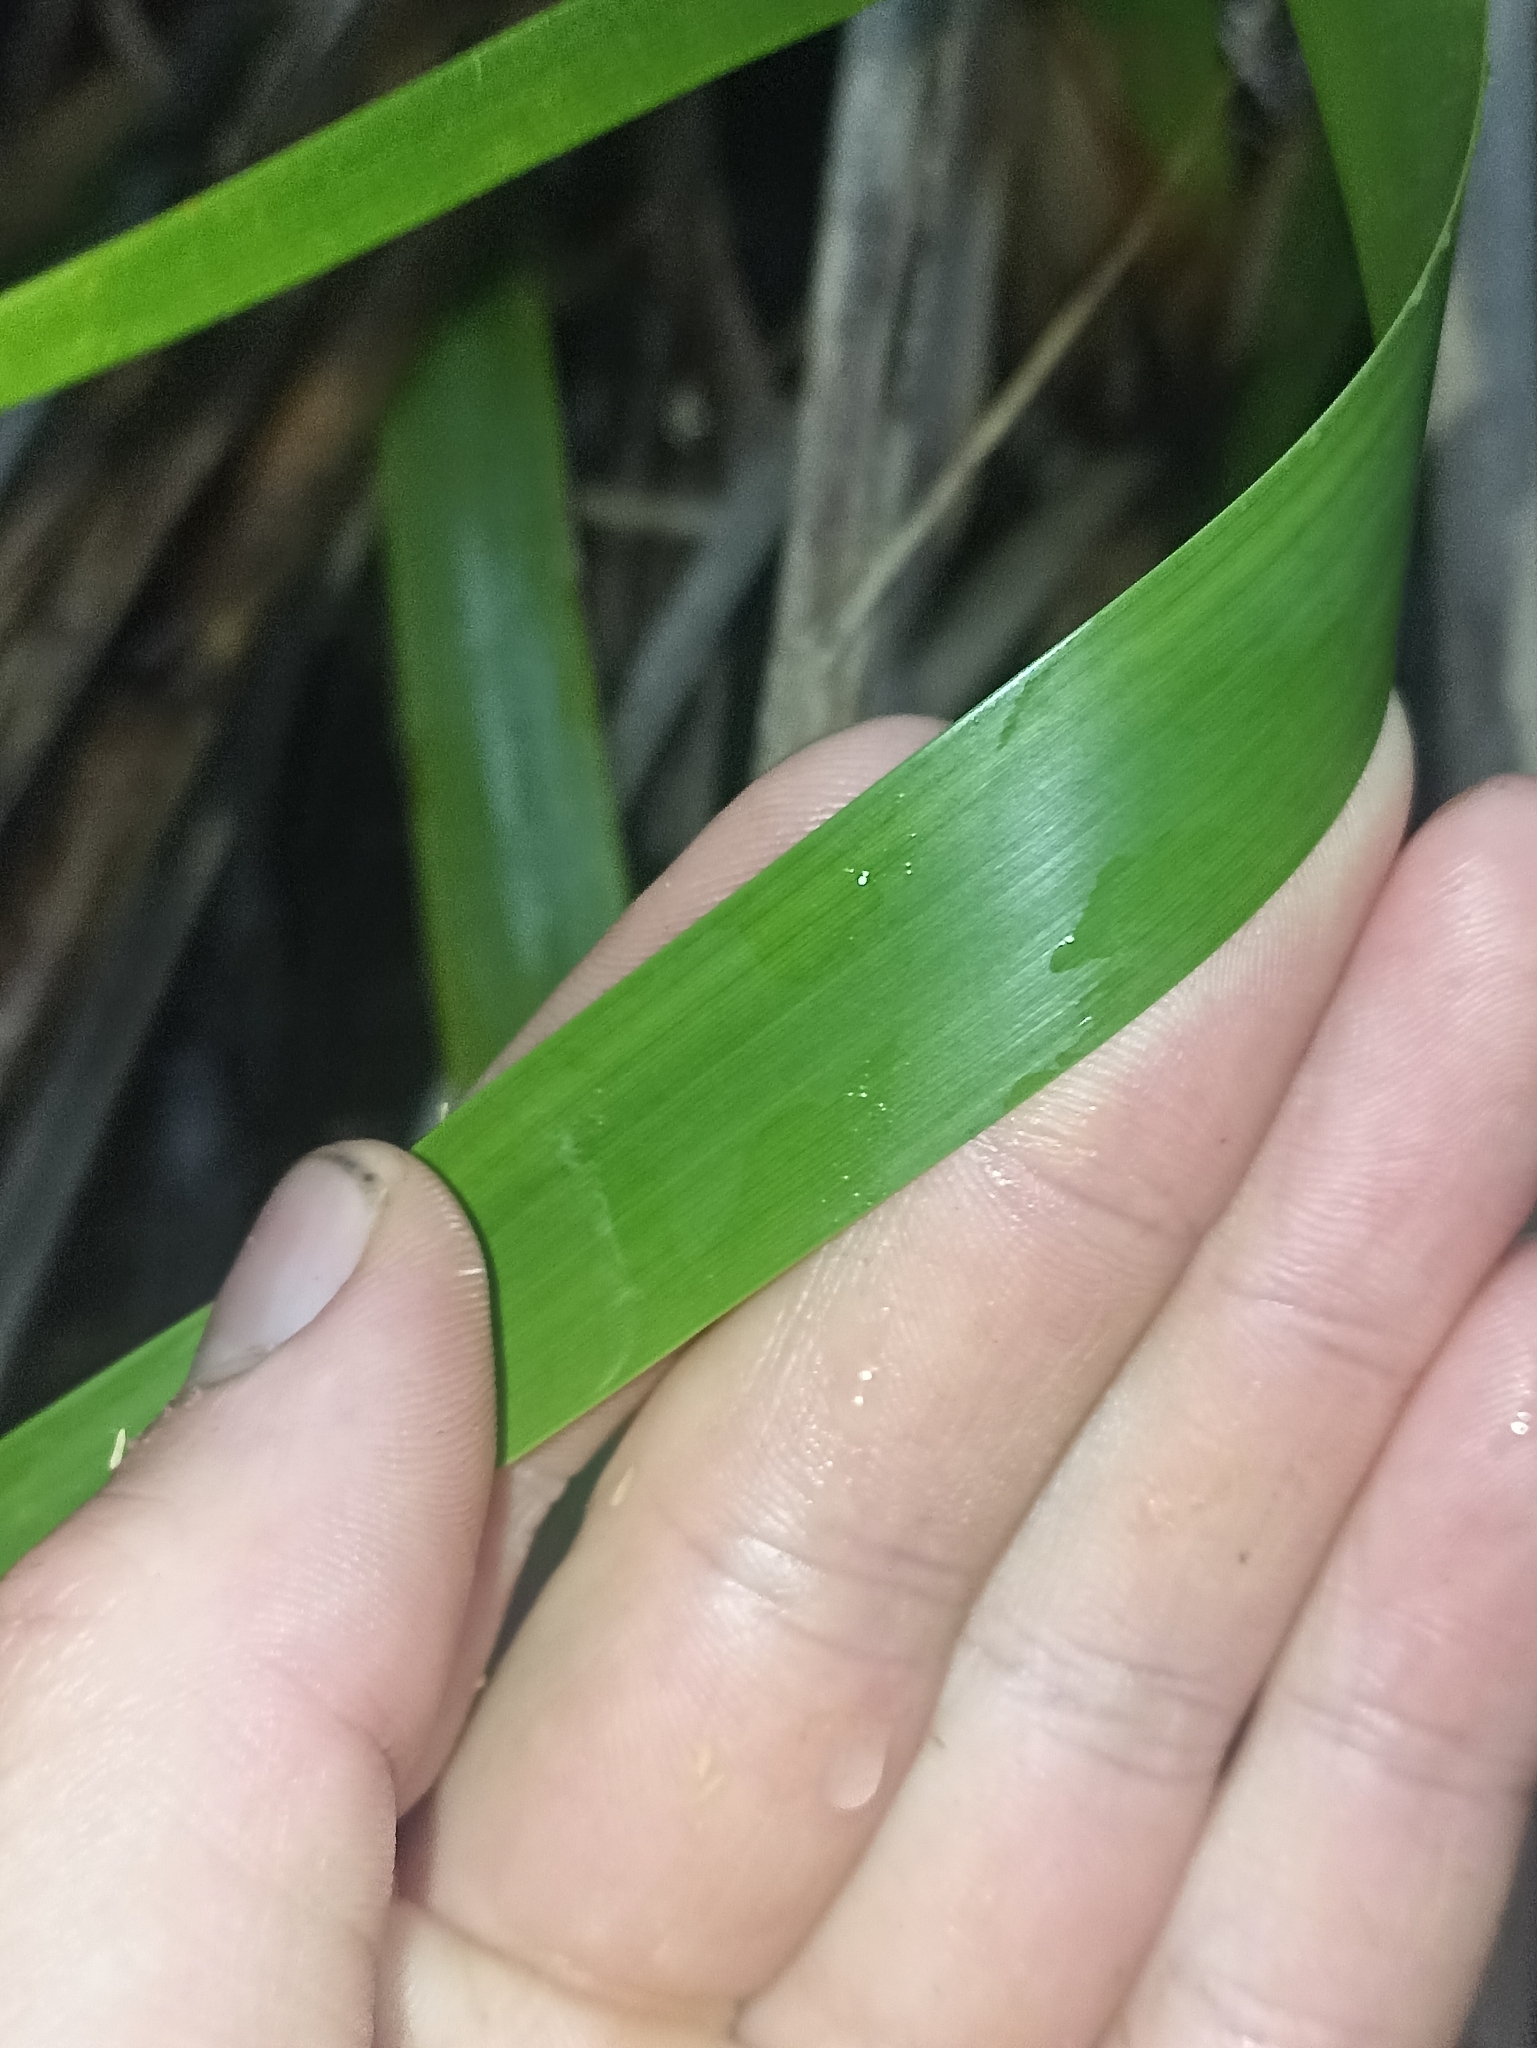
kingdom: Plantae
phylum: Tracheophyta
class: Liliopsida
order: Poales
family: Cyperaceae
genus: Machaerina
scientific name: Machaerina sinclairii
